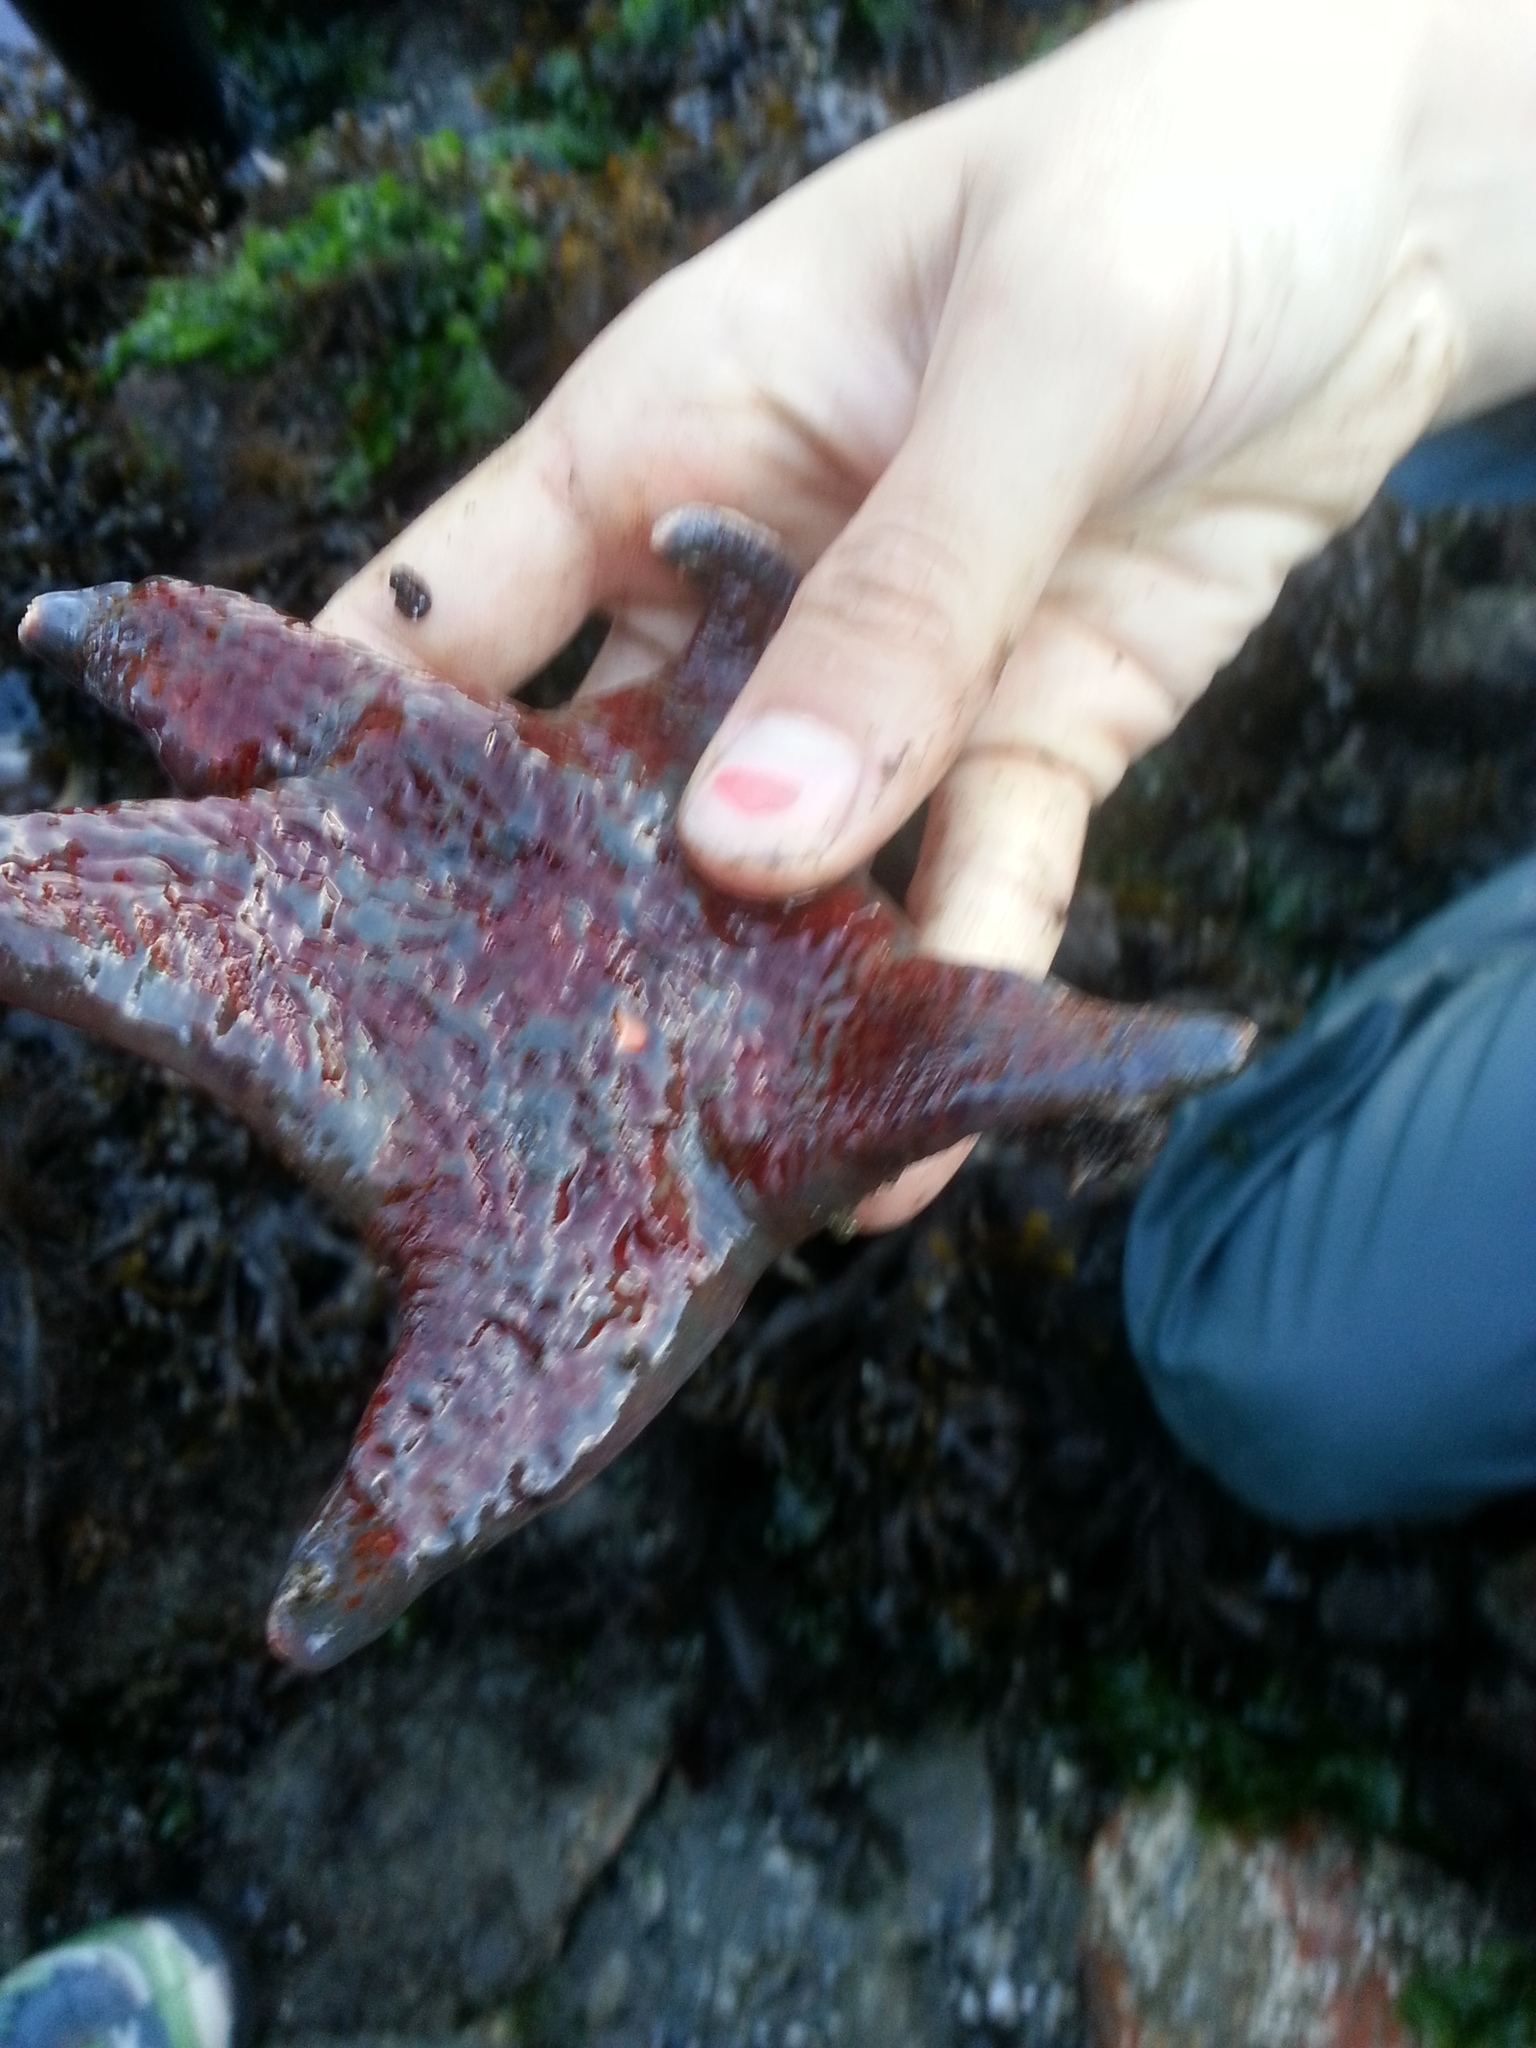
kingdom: Animalia
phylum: Echinodermata
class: Asteroidea
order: Valvatida
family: Asteropseidae
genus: Dermasterias
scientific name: Dermasterias imbricata
